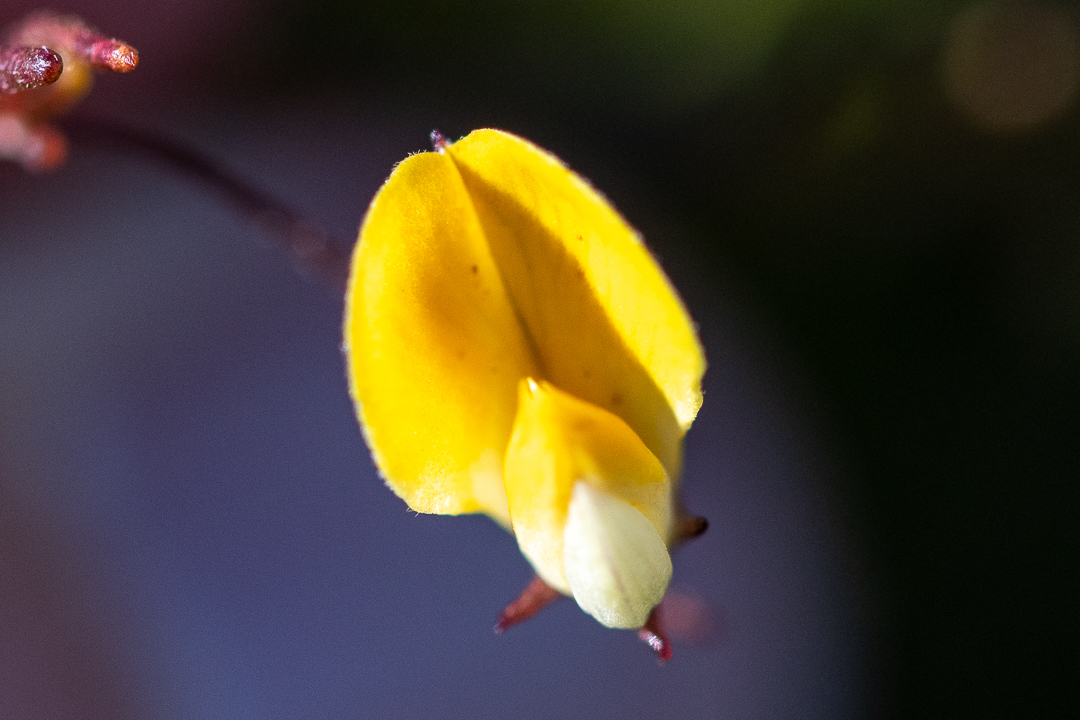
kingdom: Plantae
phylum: Tracheophyta
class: Magnoliopsida
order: Fabales
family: Fabaceae
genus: Aspalathus
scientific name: Aspalathus bracteata
